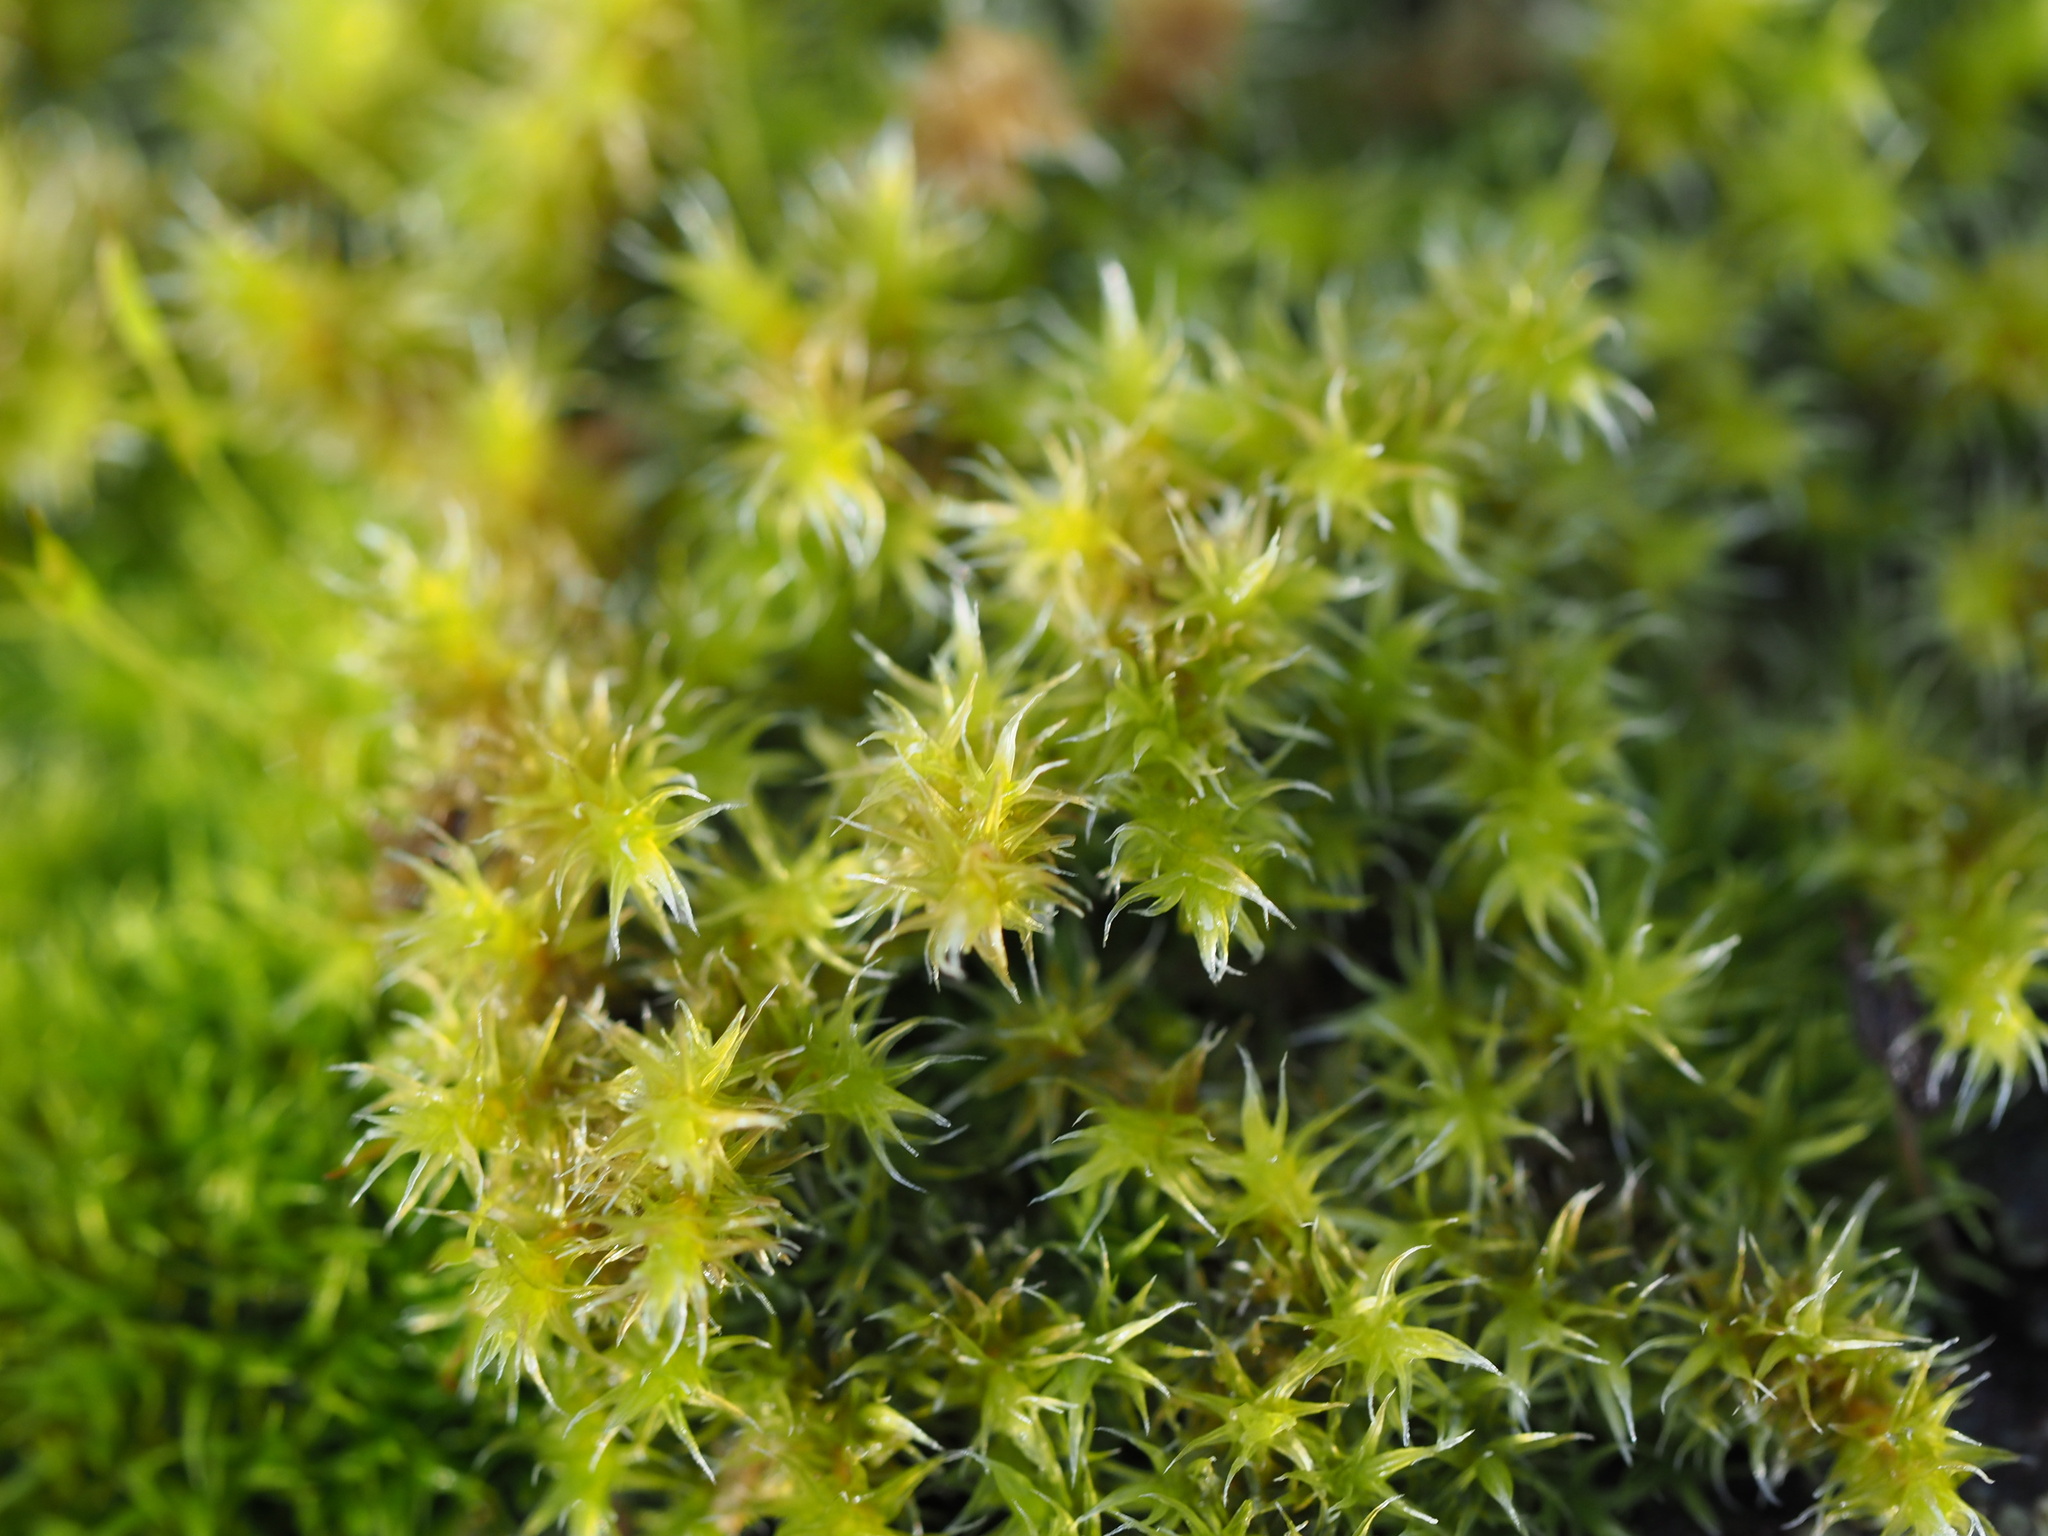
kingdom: Plantae
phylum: Bryophyta
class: Bryopsida
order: Grimmiales
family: Grimmiaceae
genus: Niphotrichum
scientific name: Niphotrichum elongatum
